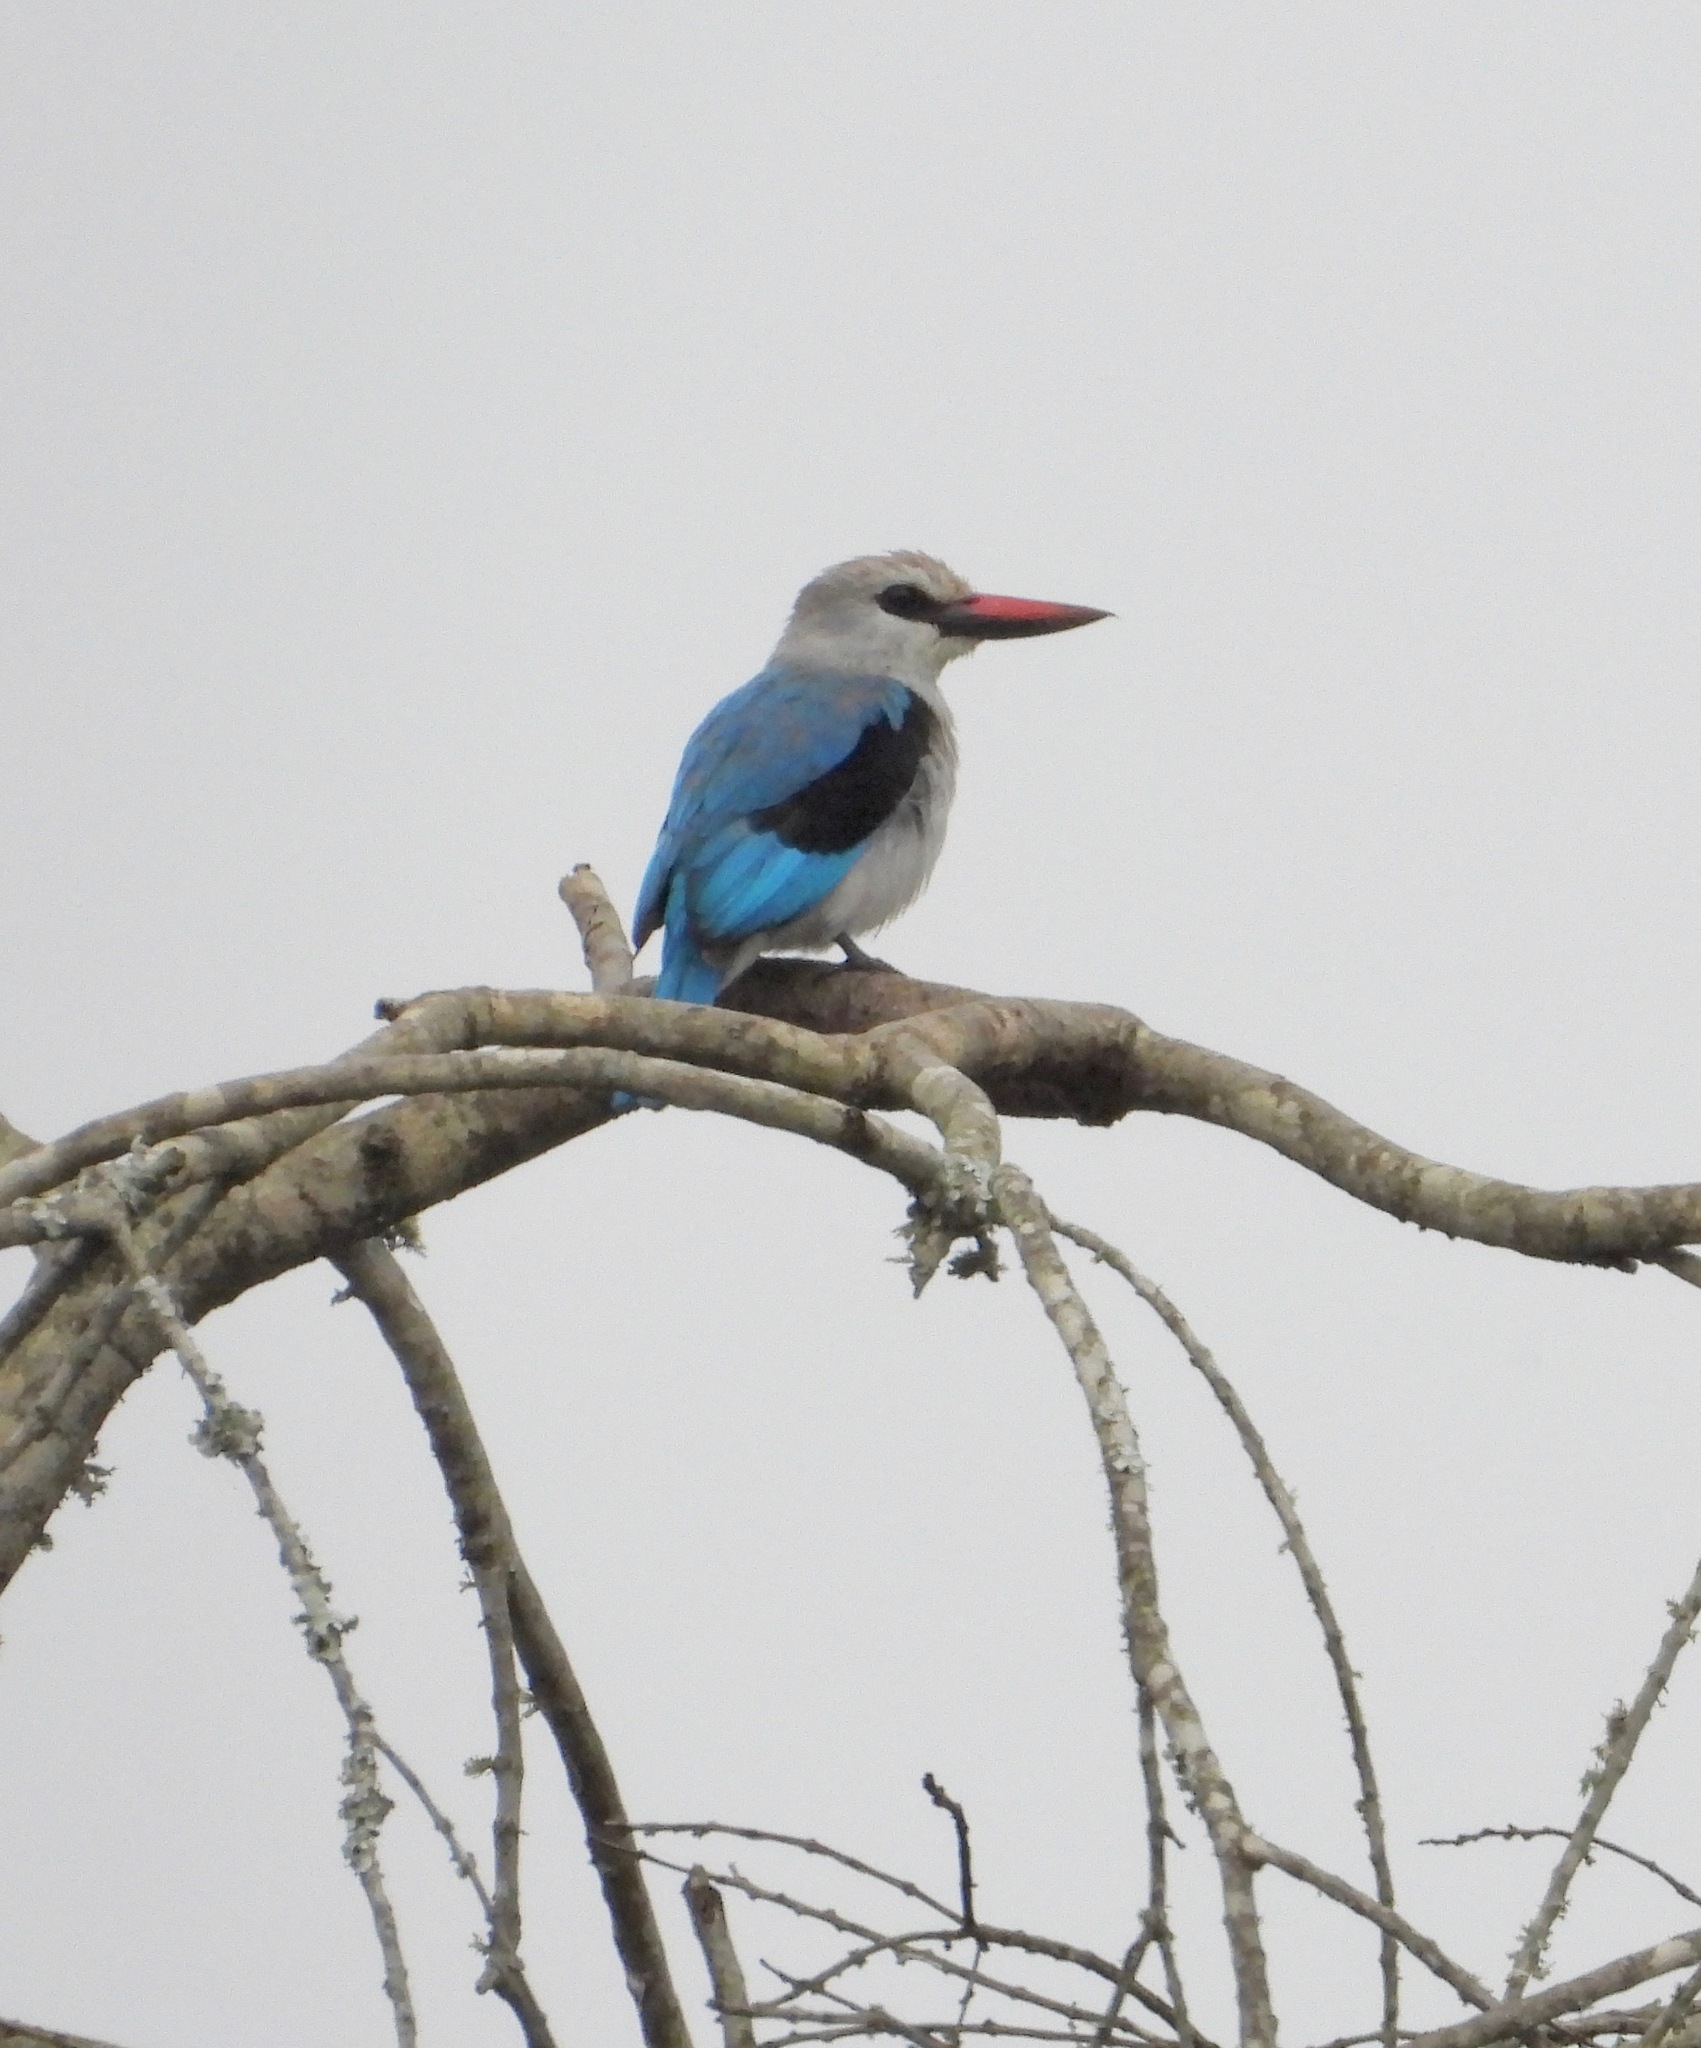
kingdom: Animalia
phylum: Chordata
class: Aves
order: Coraciiformes
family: Alcedinidae
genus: Halcyon
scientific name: Halcyon senegalensis
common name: Woodland kingfisher
